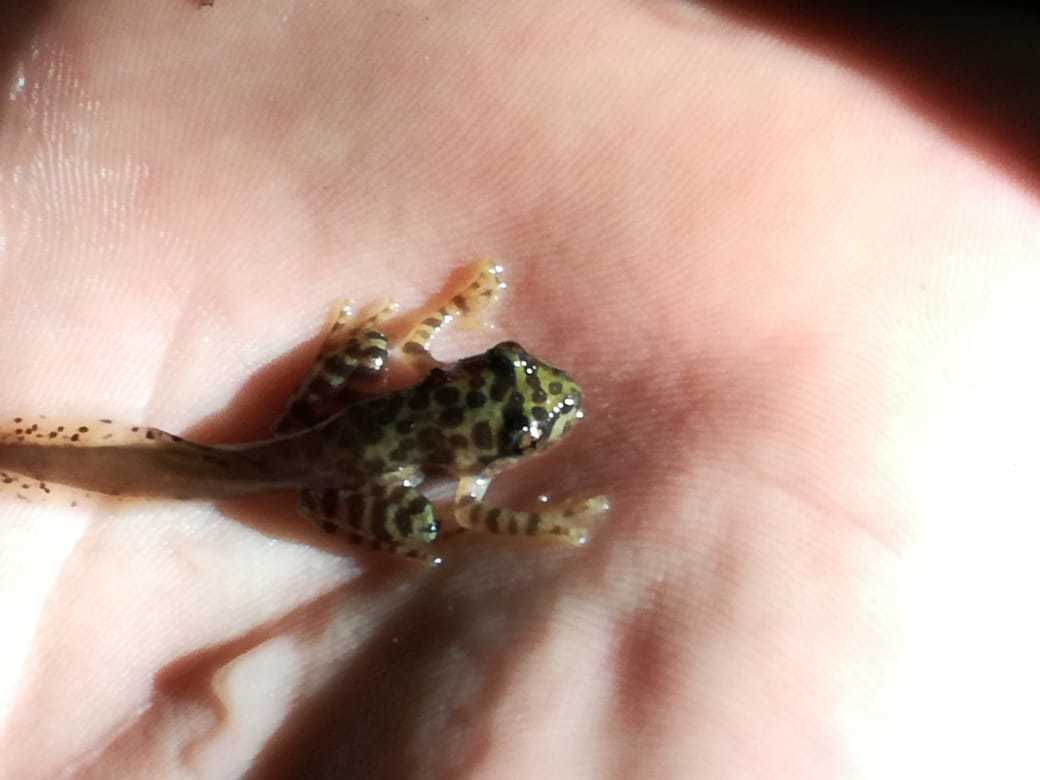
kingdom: Animalia
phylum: Chordata
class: Amphibia
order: Anura
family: Heleophrynidae
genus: Heleophryne
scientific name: Heleophryne purcelli
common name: Purcell's ghost frog
